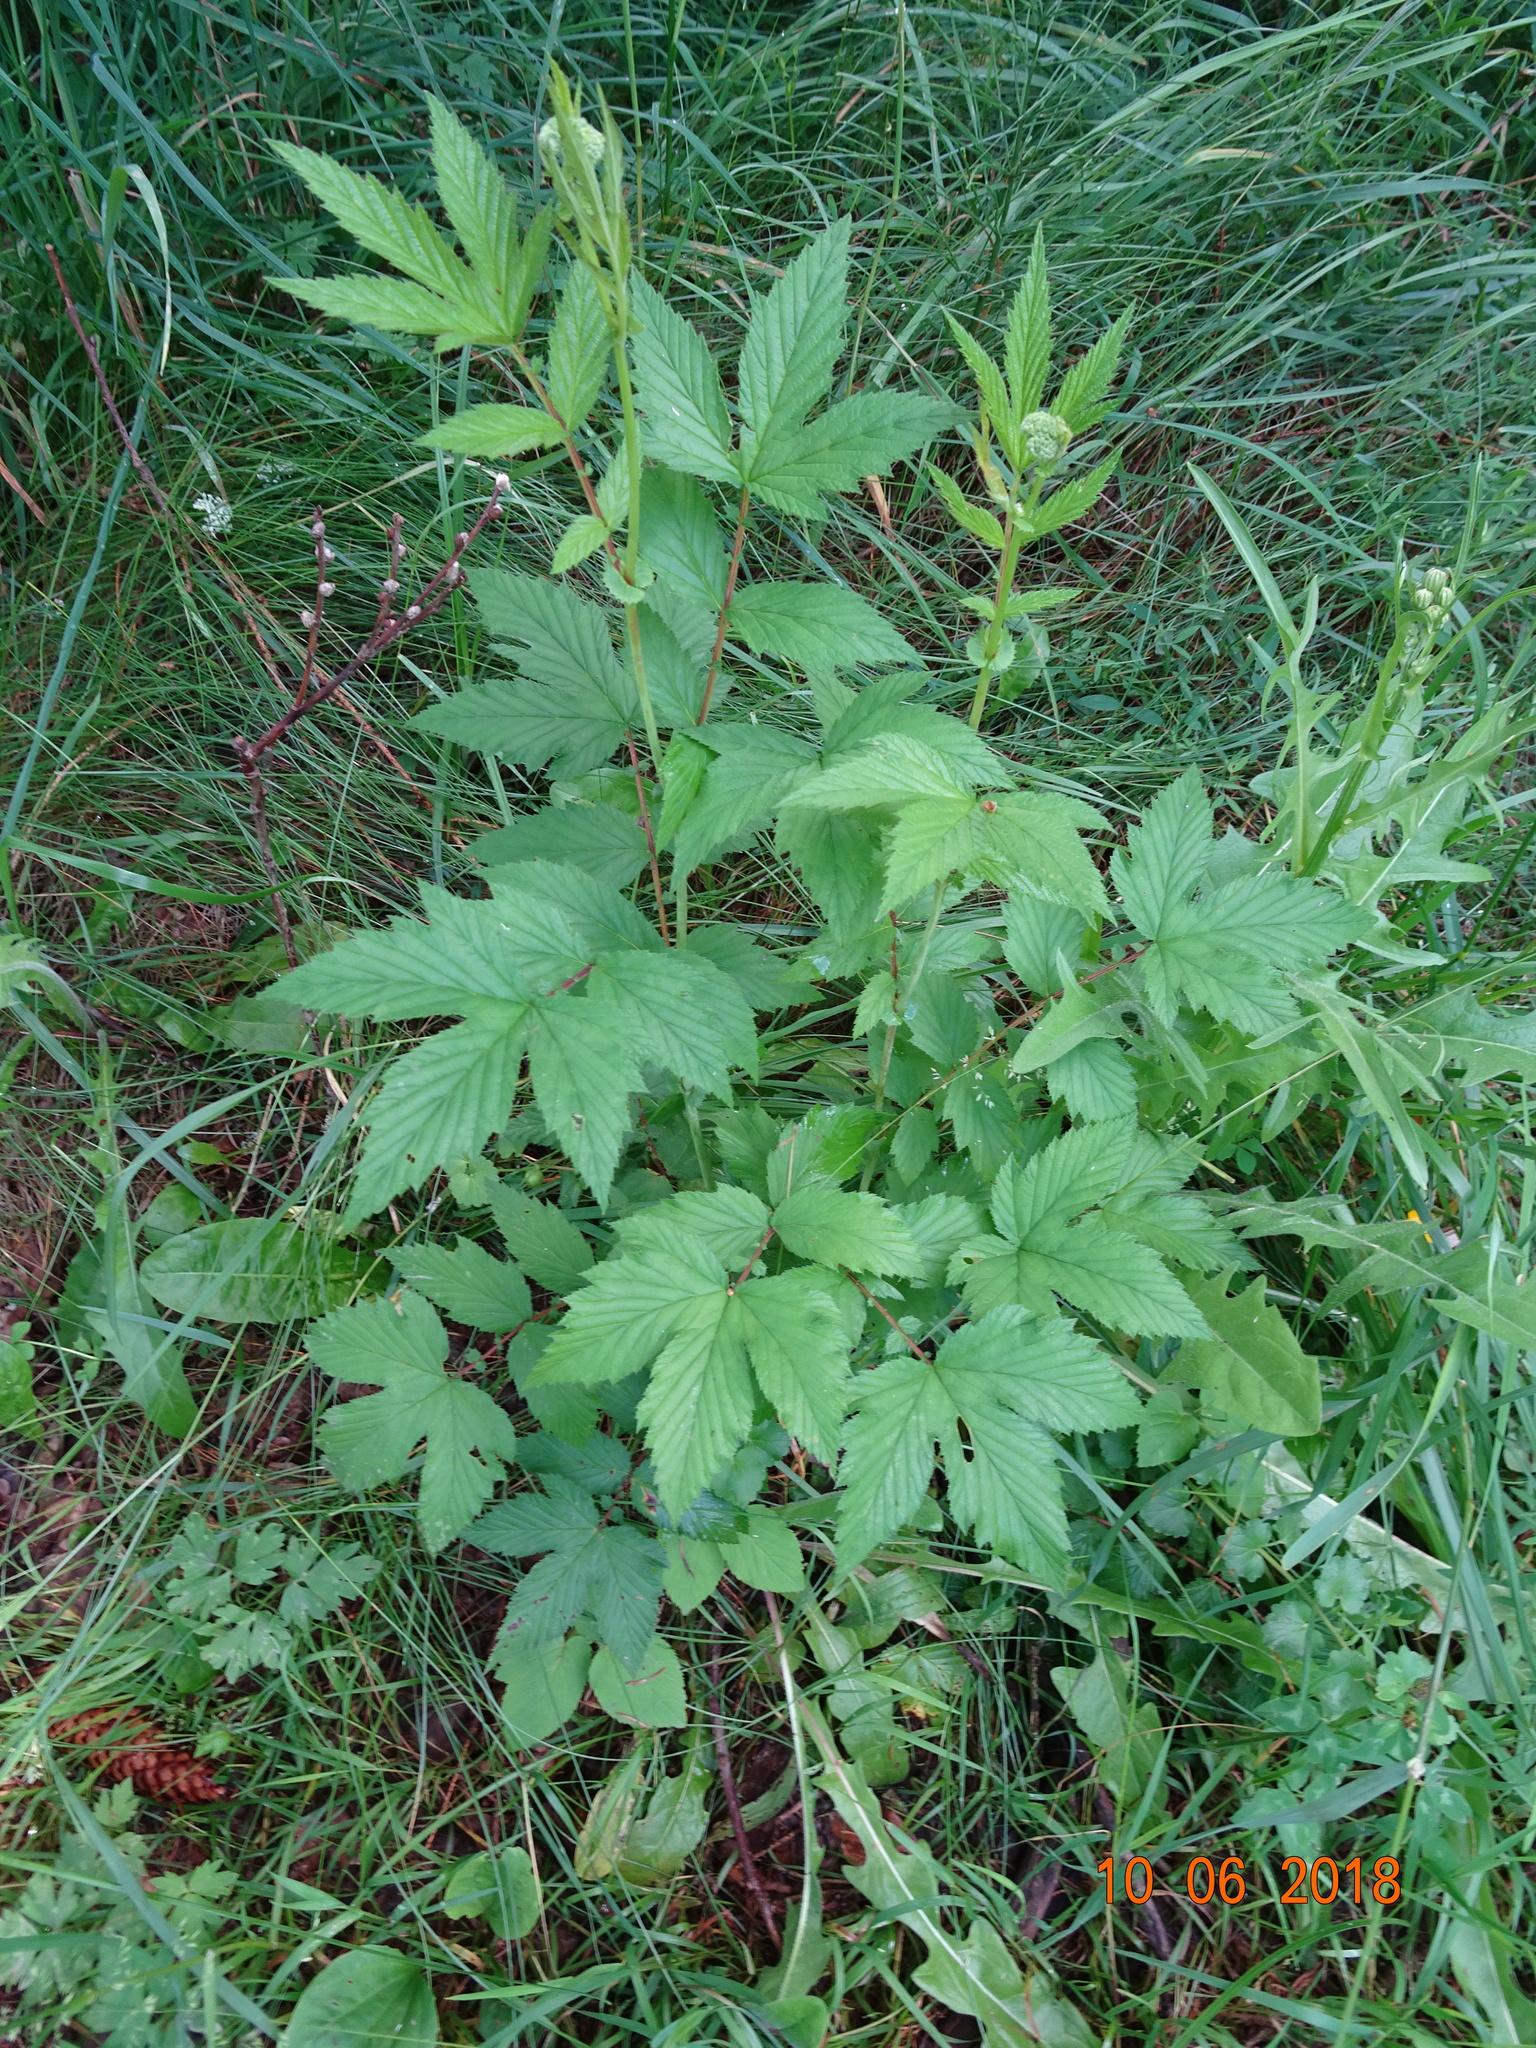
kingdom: Plantae
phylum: Tracheophyta
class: Magnoliopsida
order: Rosales
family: Rosaceae
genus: Filipendula
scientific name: Filipendula ulmaria
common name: Meadowsweet
